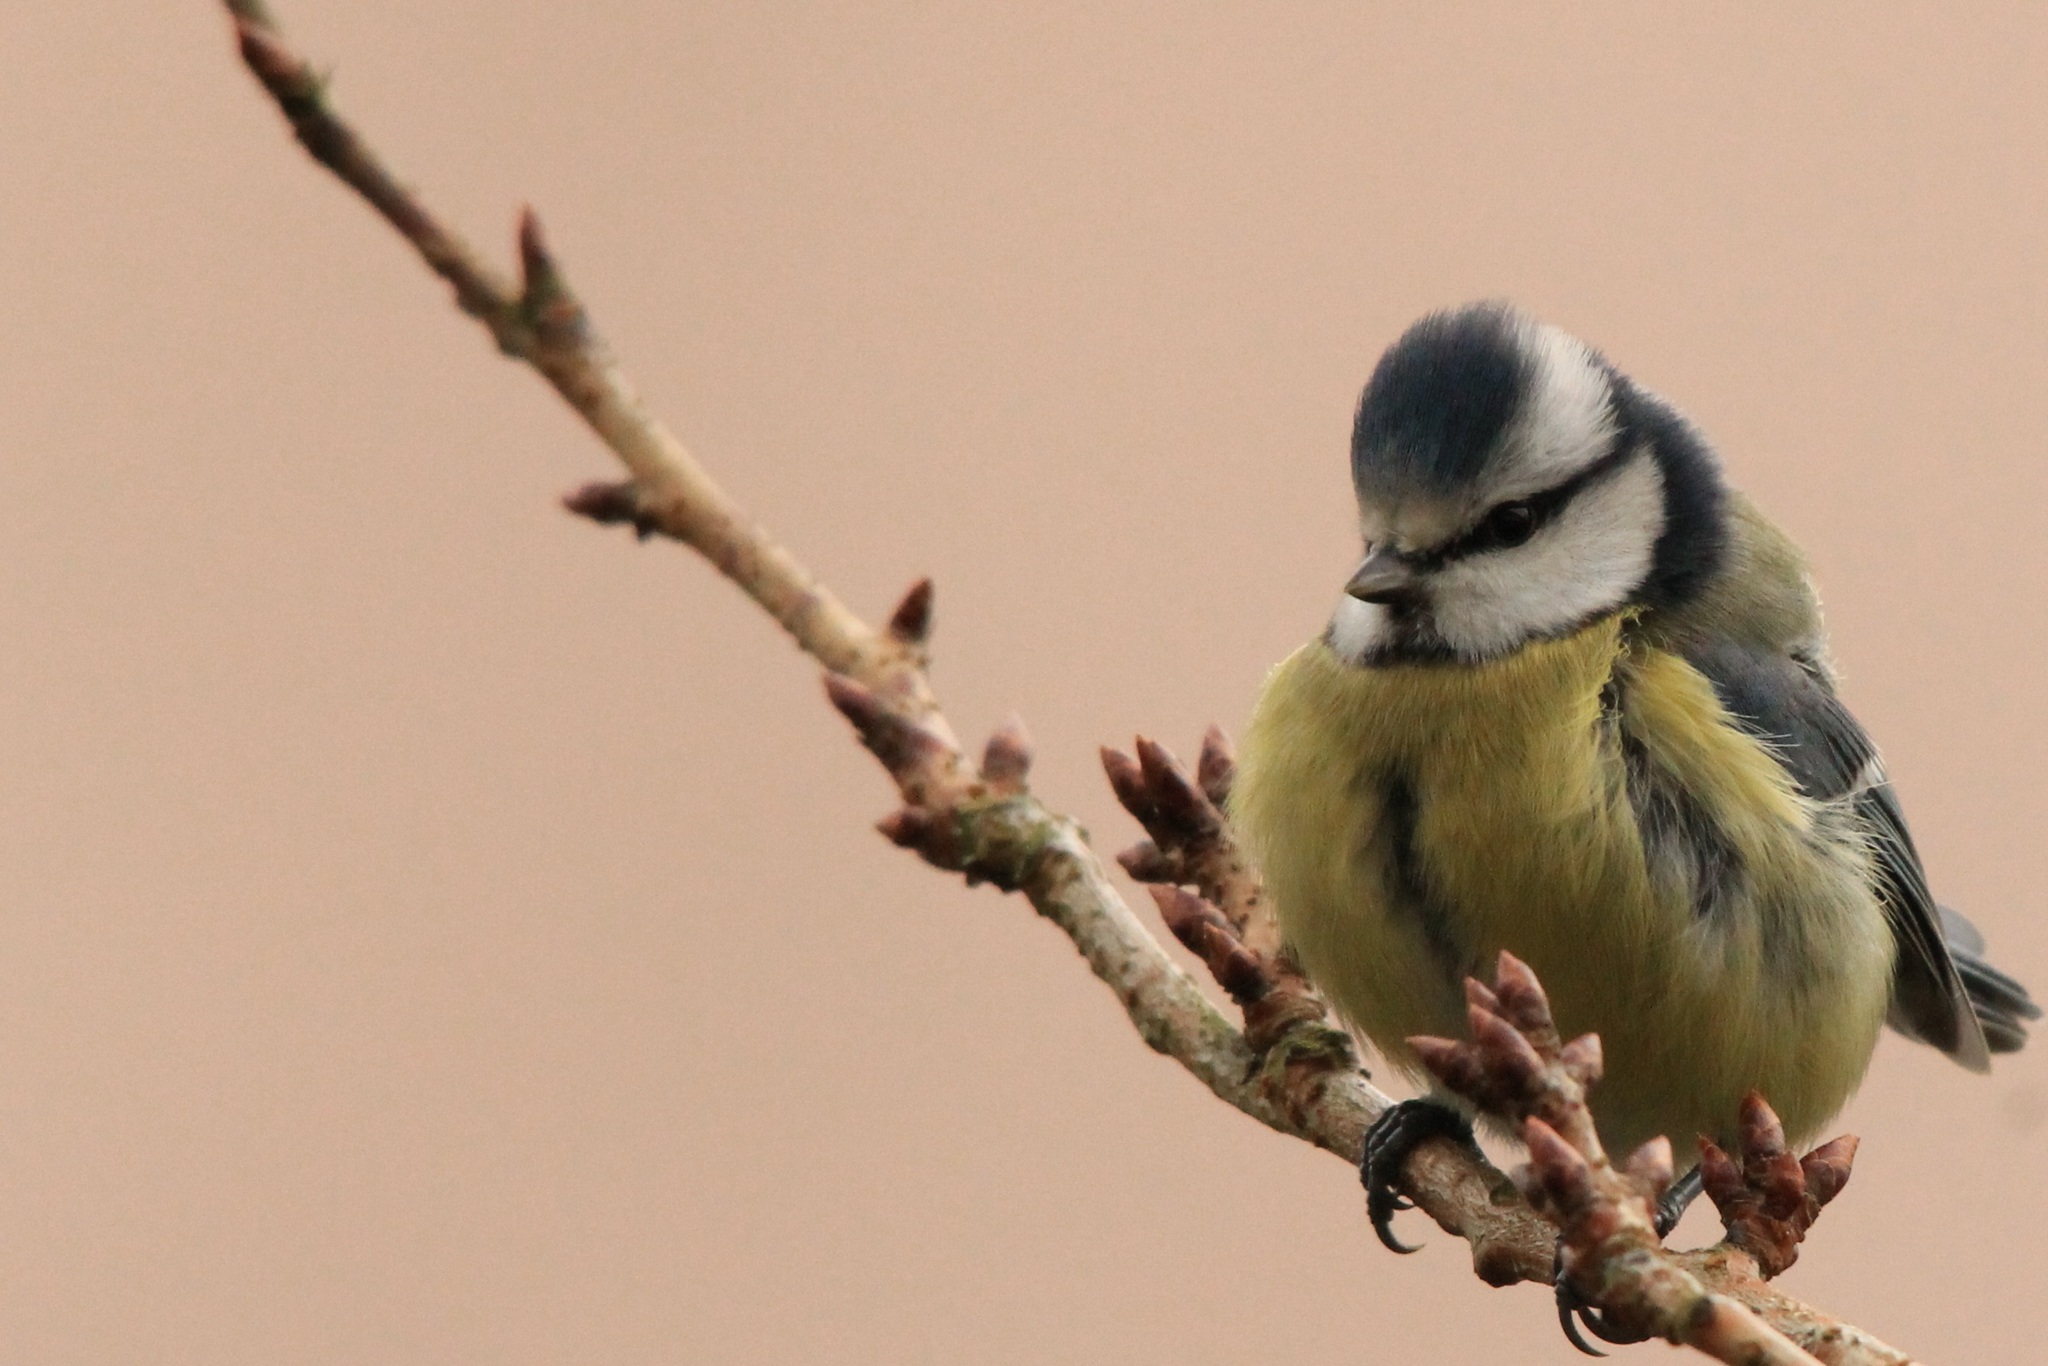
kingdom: Animalia
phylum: Chordata
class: Aves
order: Passeriformes
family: Paridae
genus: Cyanistes
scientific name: Cyanistes caeruleus
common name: Eurasian blue tit
